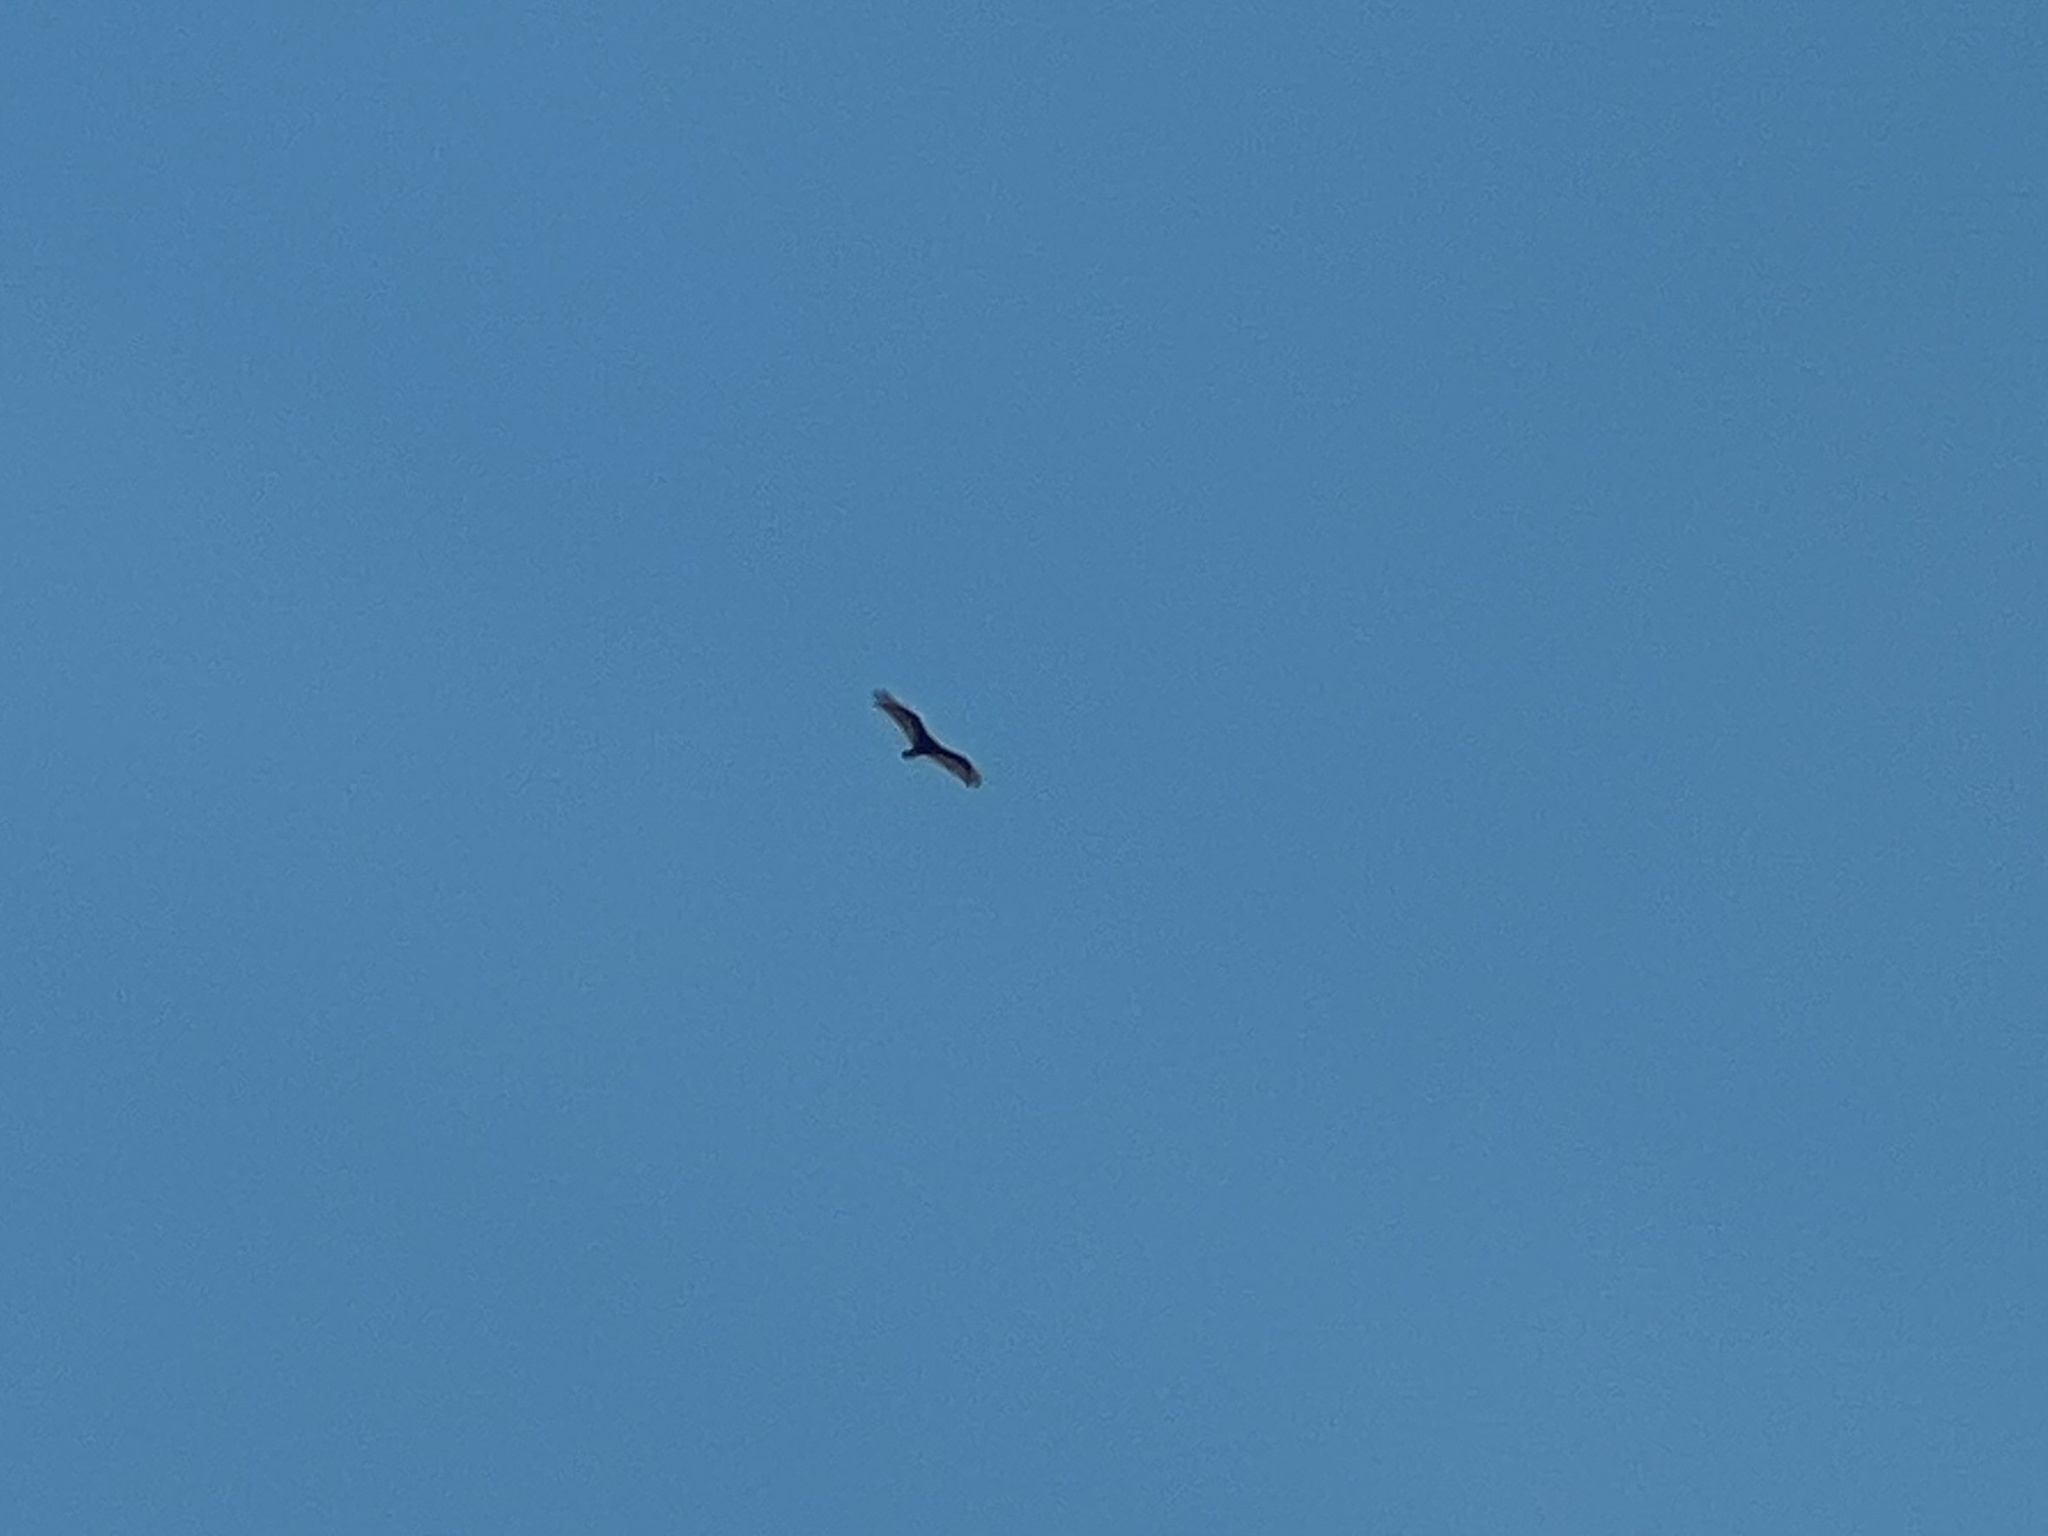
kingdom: Animalia
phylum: Chordata
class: Aves
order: Accipitriformes
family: Cathartidae
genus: Cathartes
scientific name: Cathartes aura
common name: Turkey vulture
